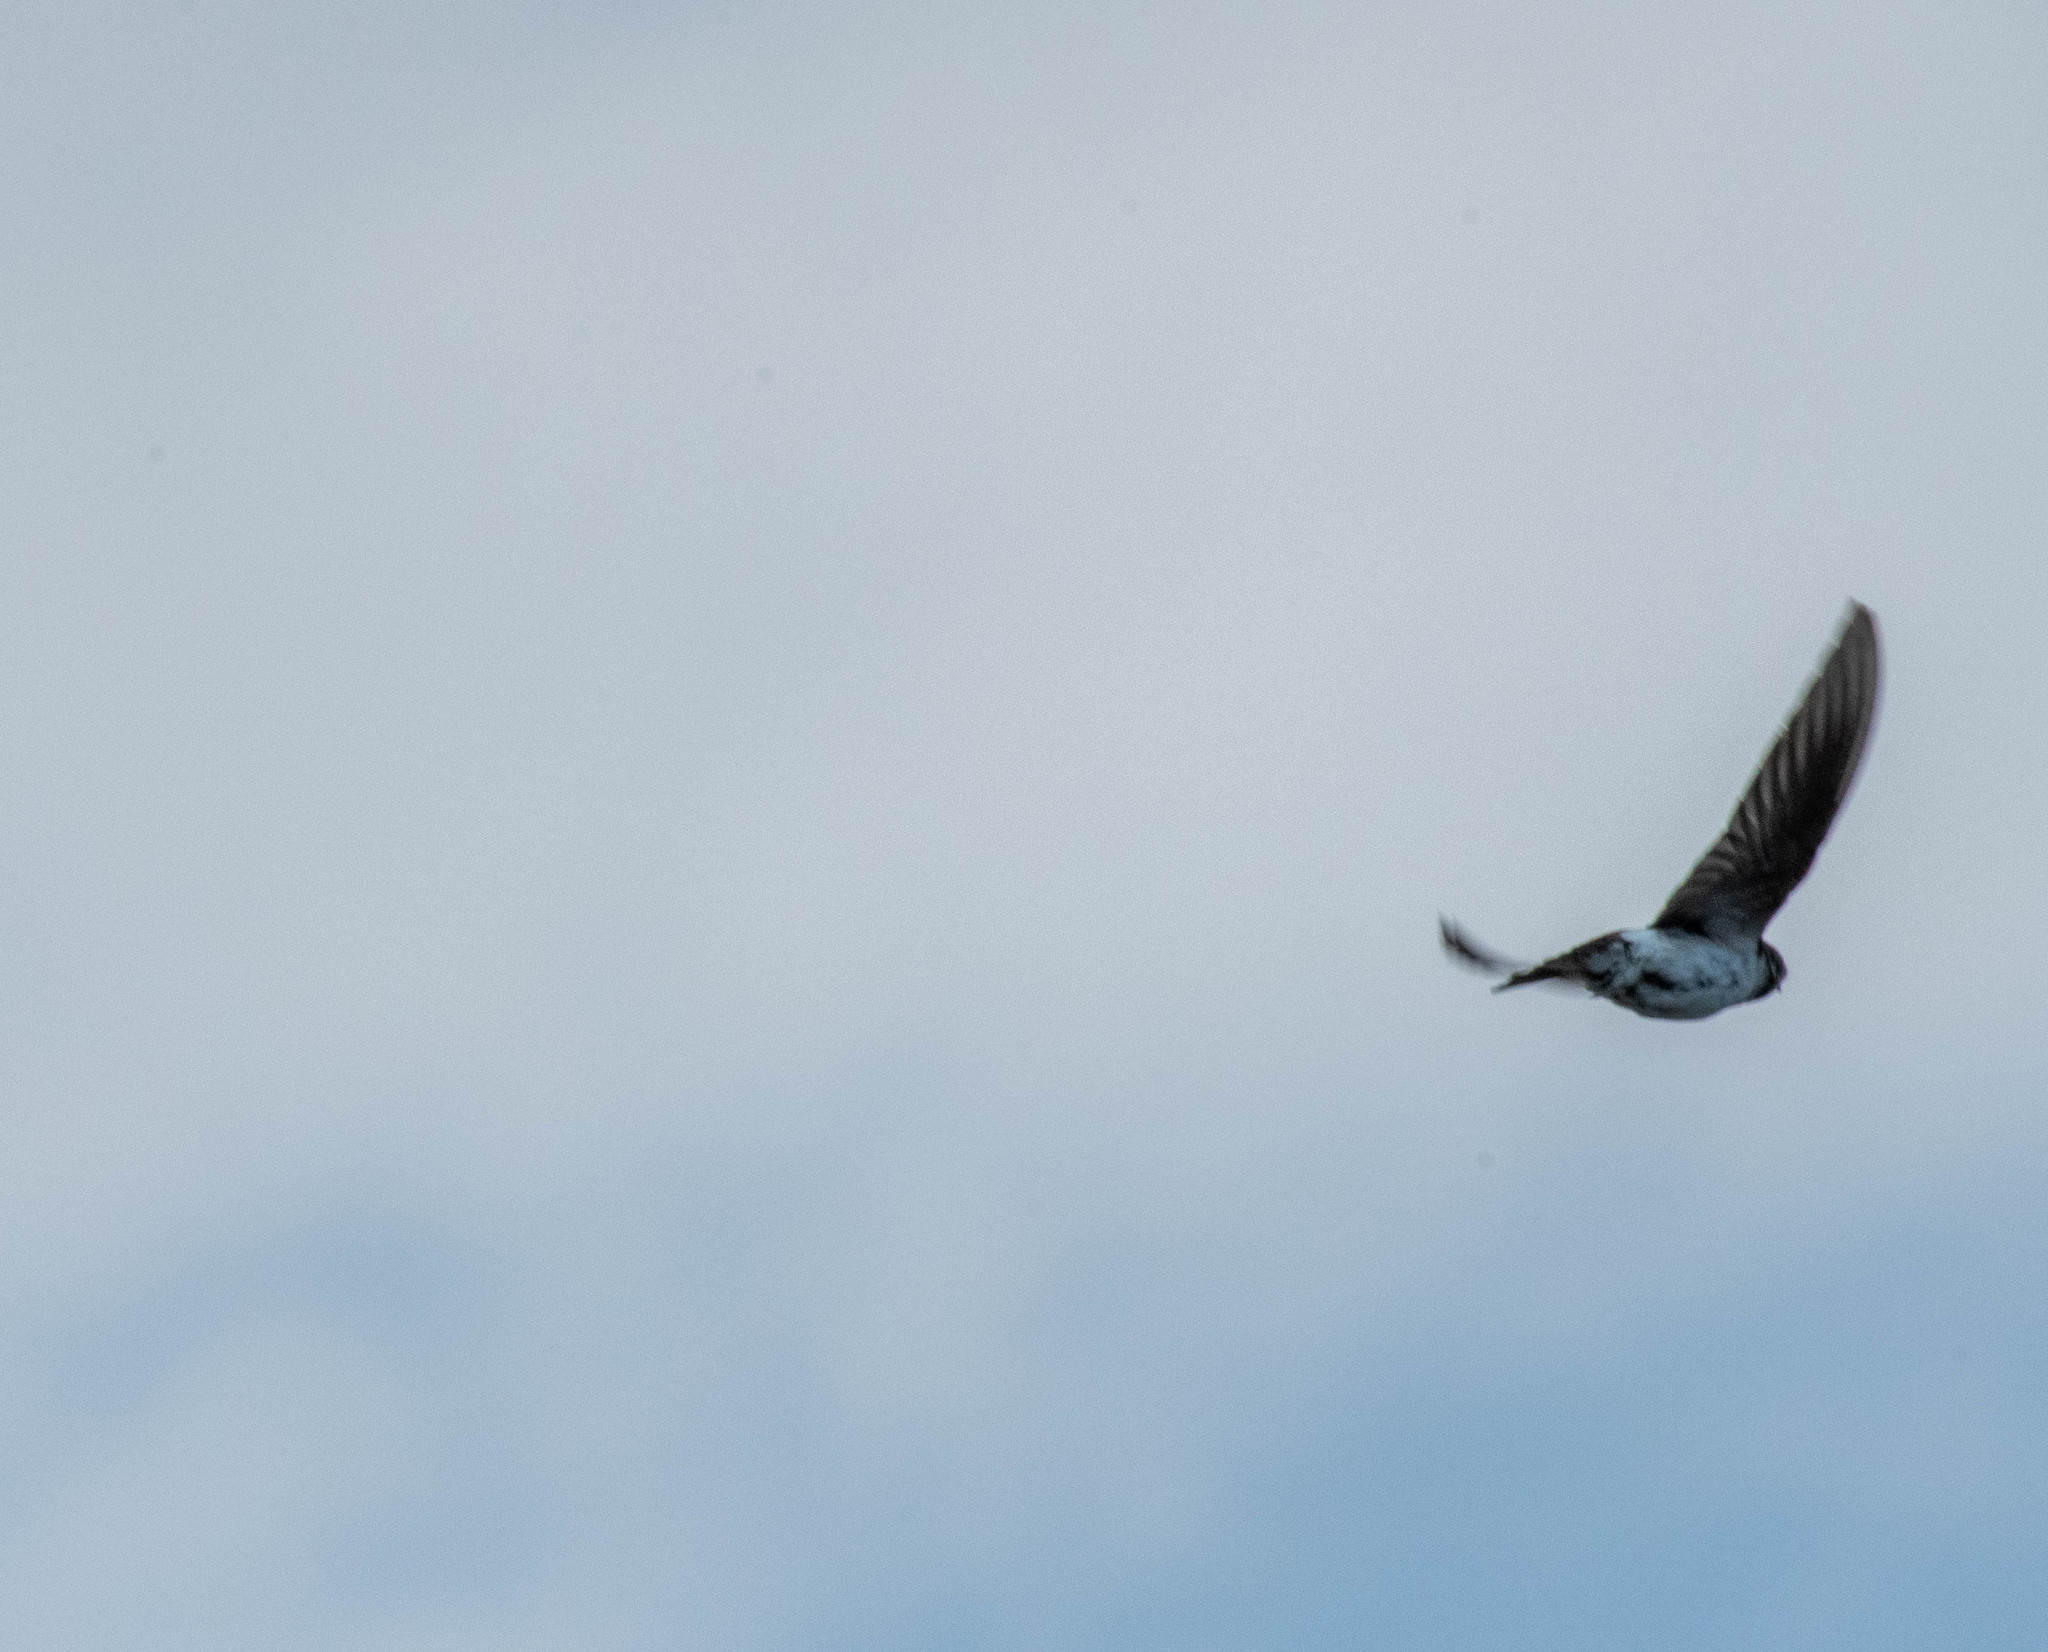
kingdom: Animalia
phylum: Chordata
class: Aves
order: Passeriformes
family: Hirundinidae
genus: Tachycineta
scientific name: Tachycineta thalassina
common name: Violet-green swallow
